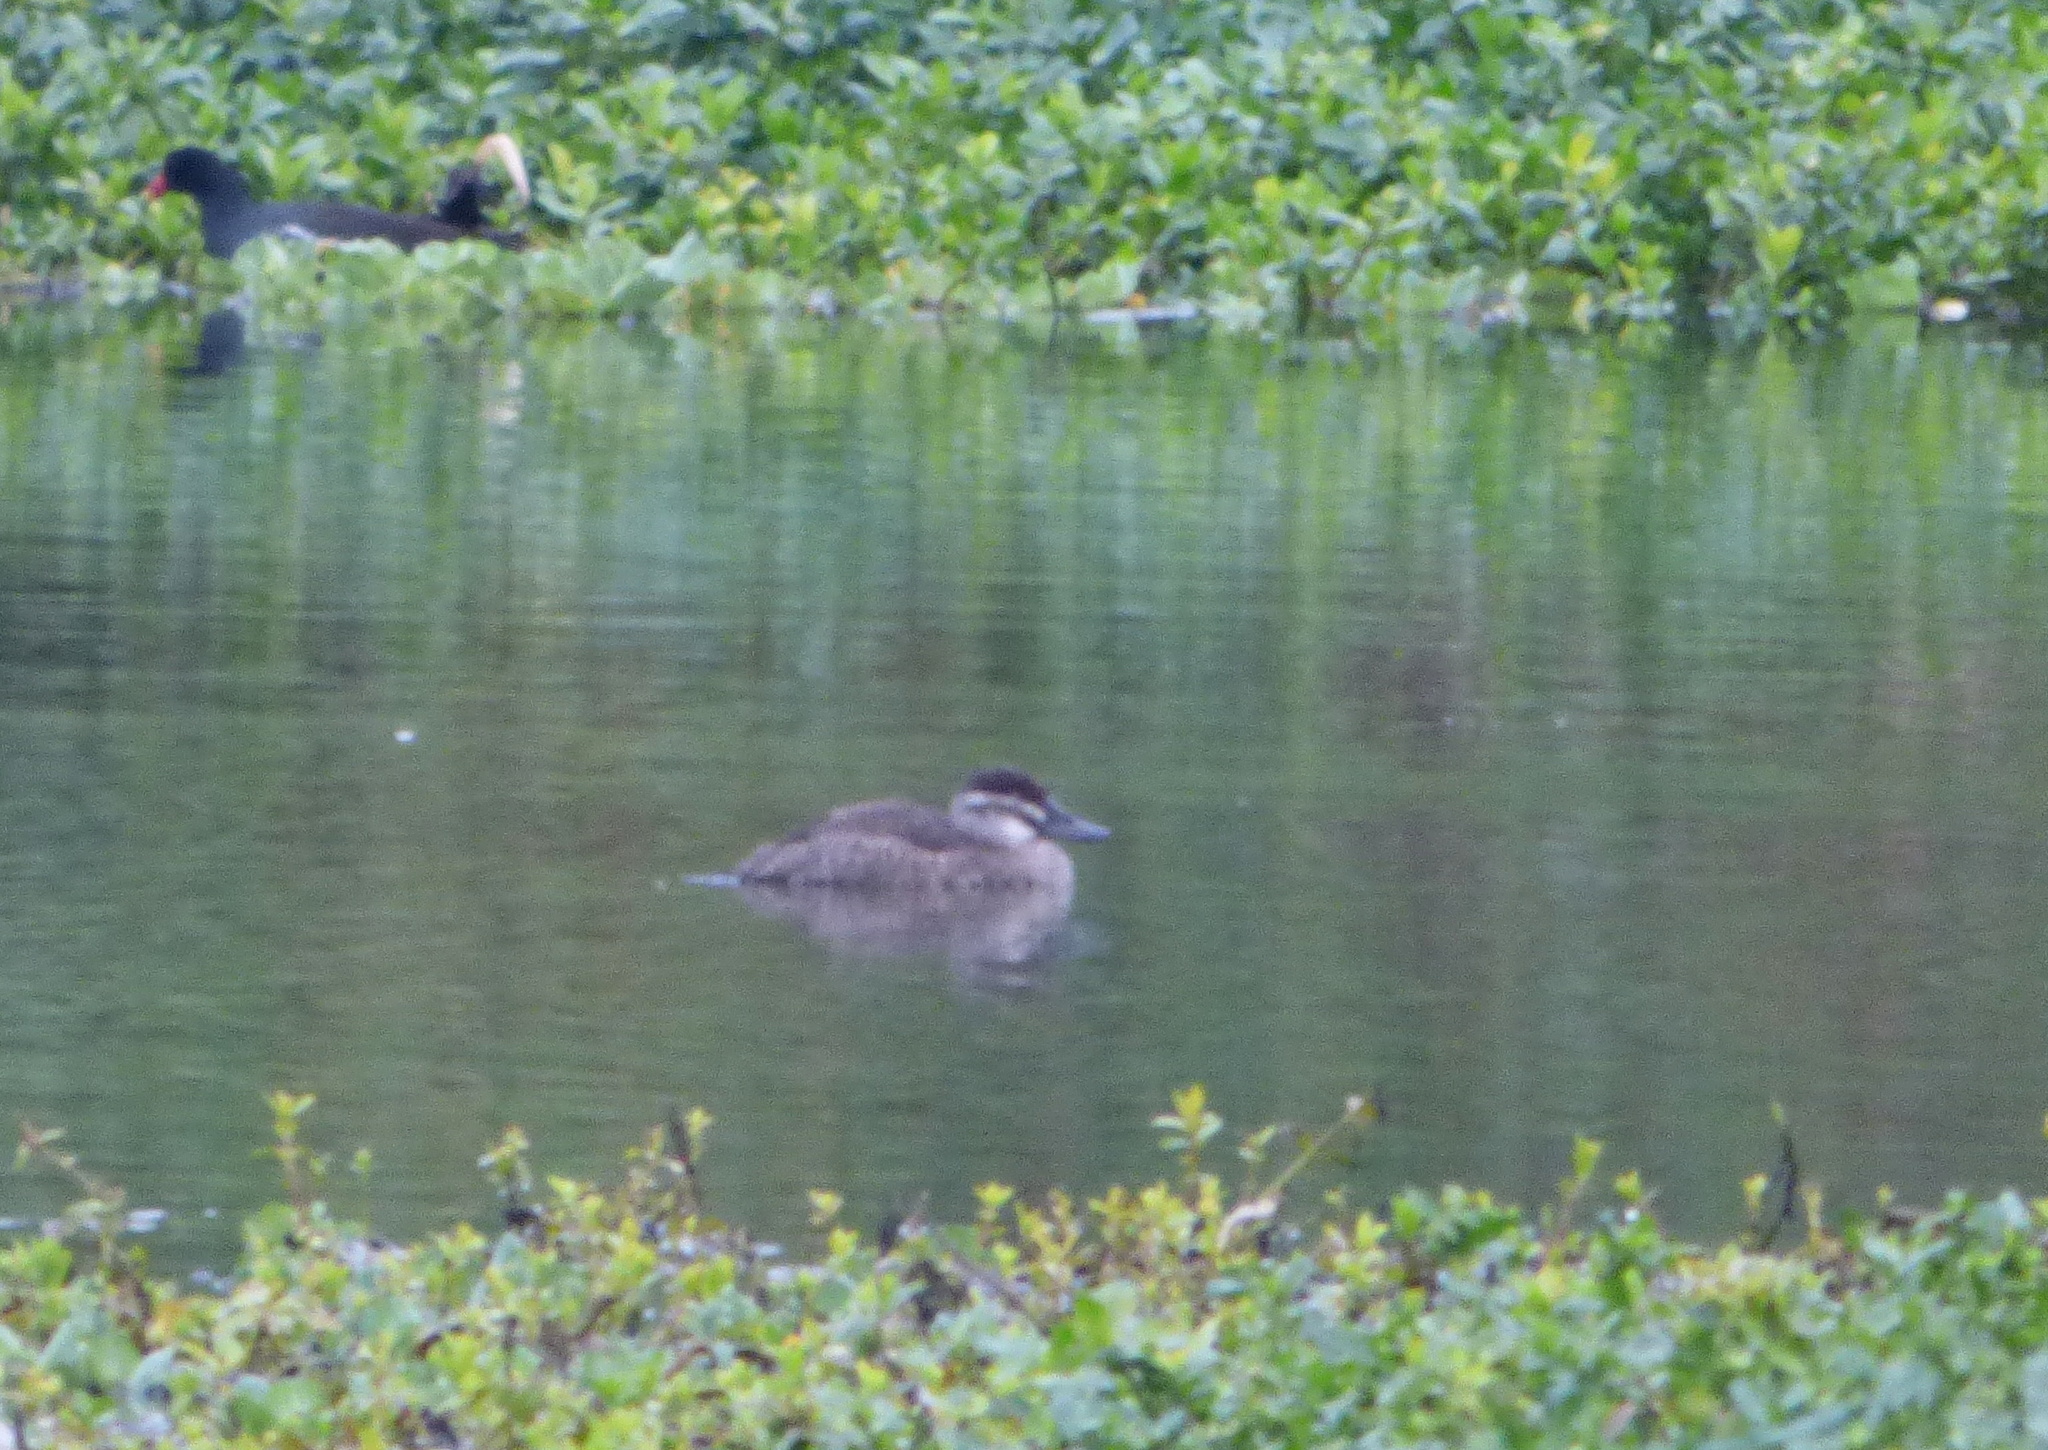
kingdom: Animalia
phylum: Chordata
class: Aves
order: Anseriformes
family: Anatidae
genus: Oxyura
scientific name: Oxyura vittata
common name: Lake duck
